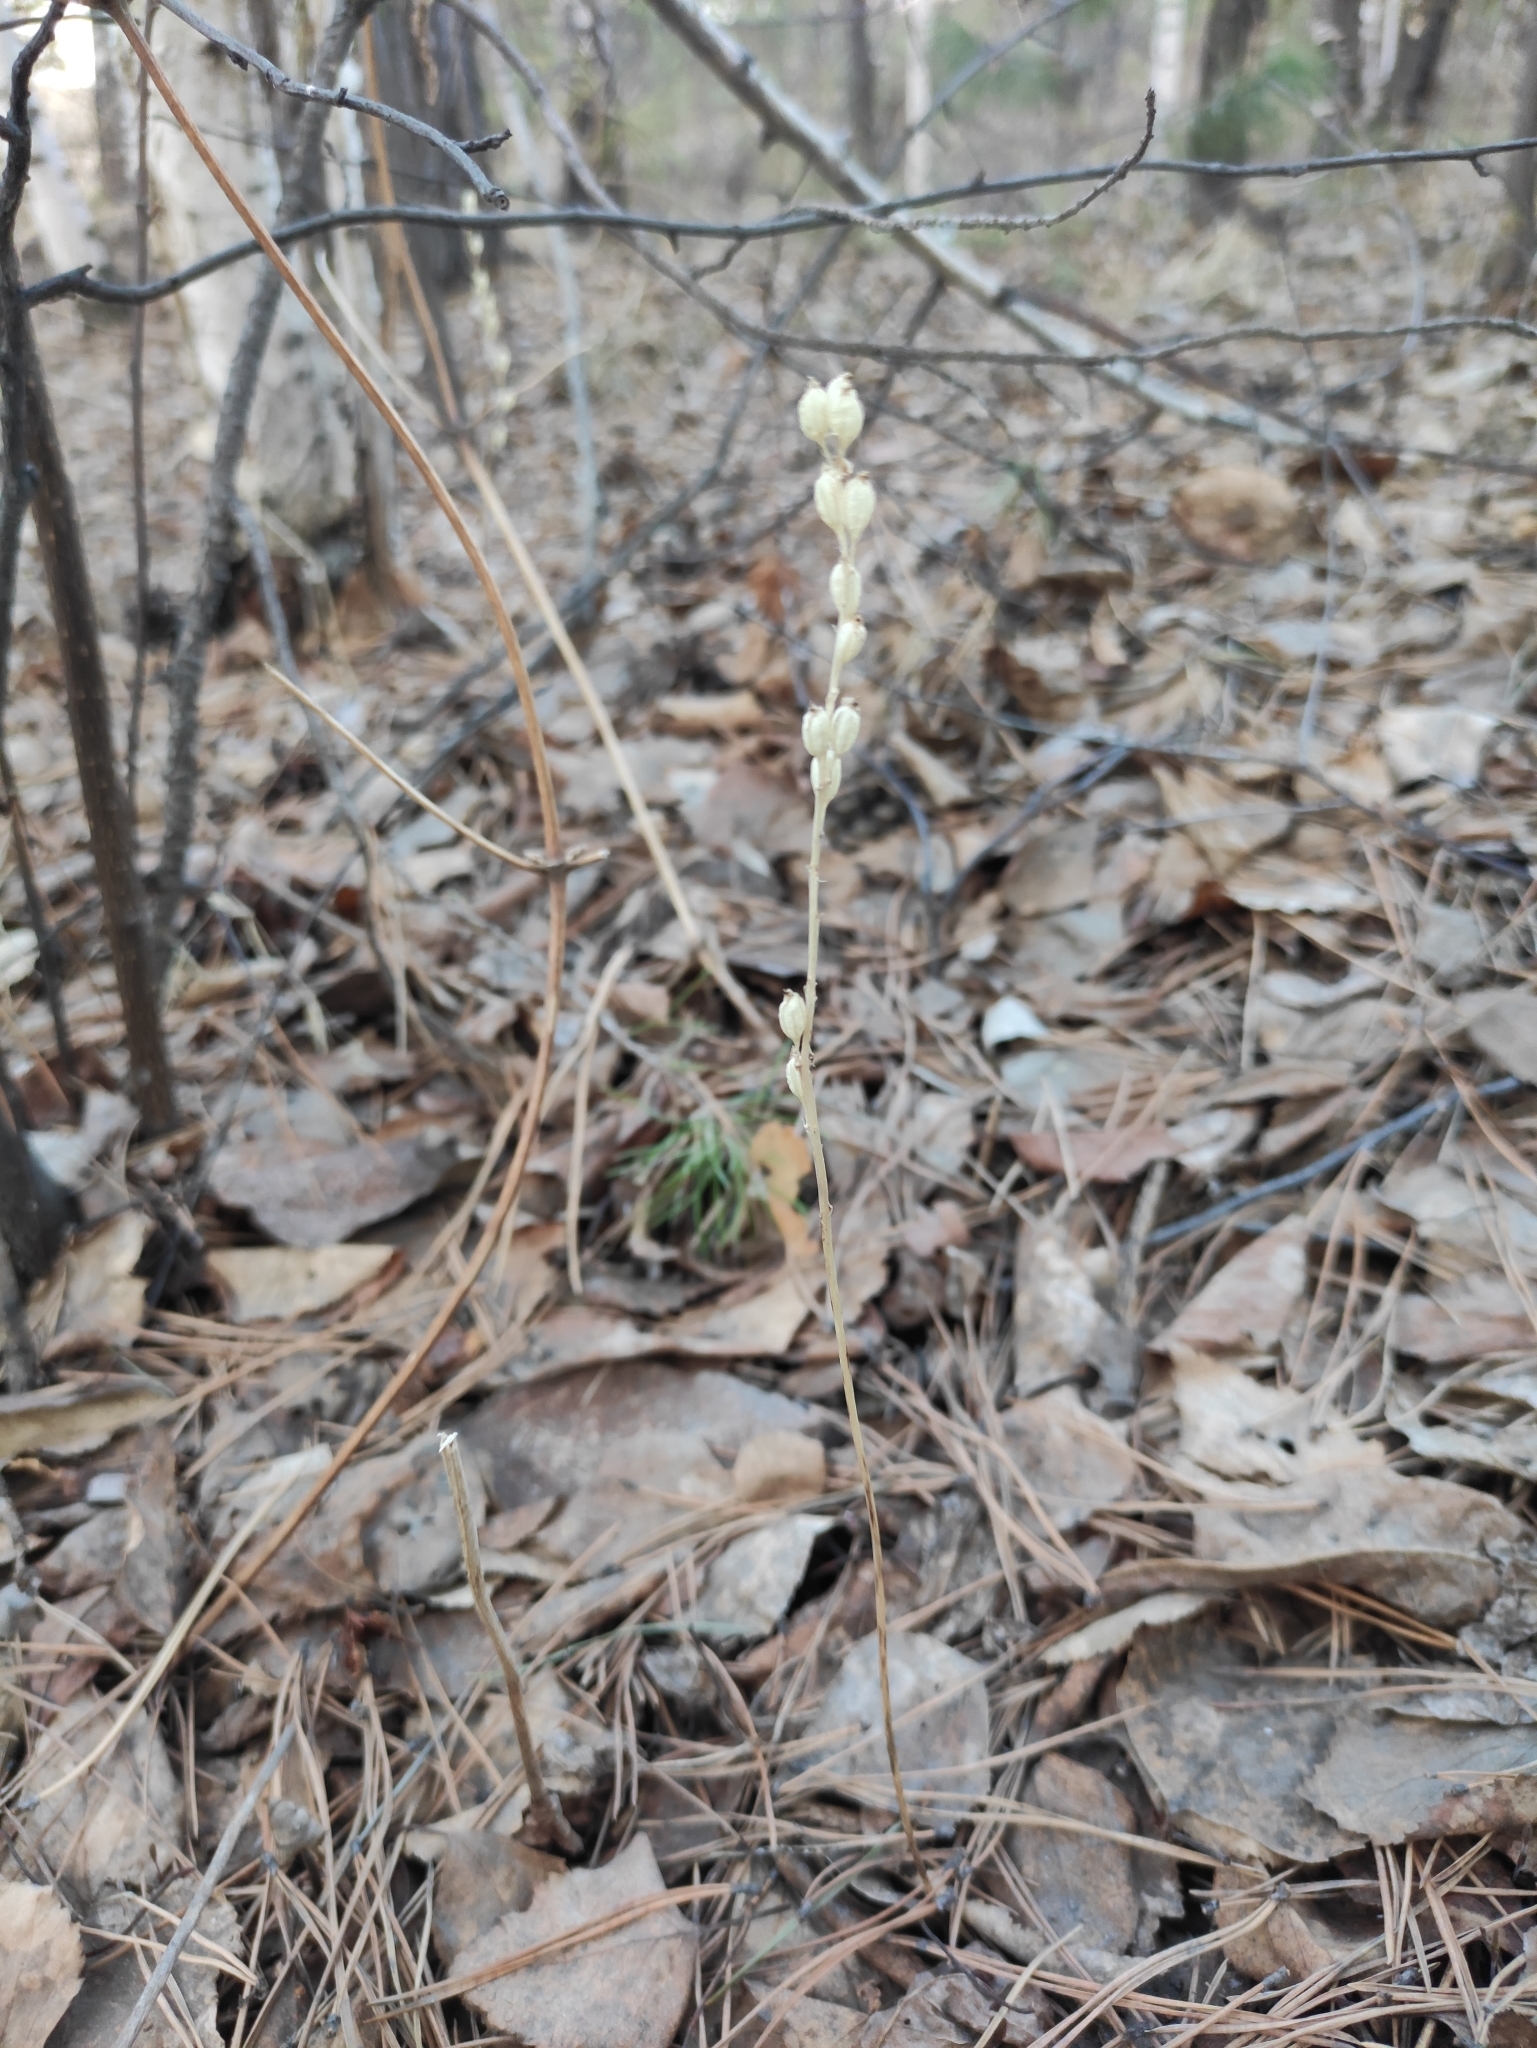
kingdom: Plantae
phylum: Tracheophyta
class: Liliopsida
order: Asparagales
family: Orchidaceae
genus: Malaxis
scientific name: Malaxis monophyllos
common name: White adder's-mouth
